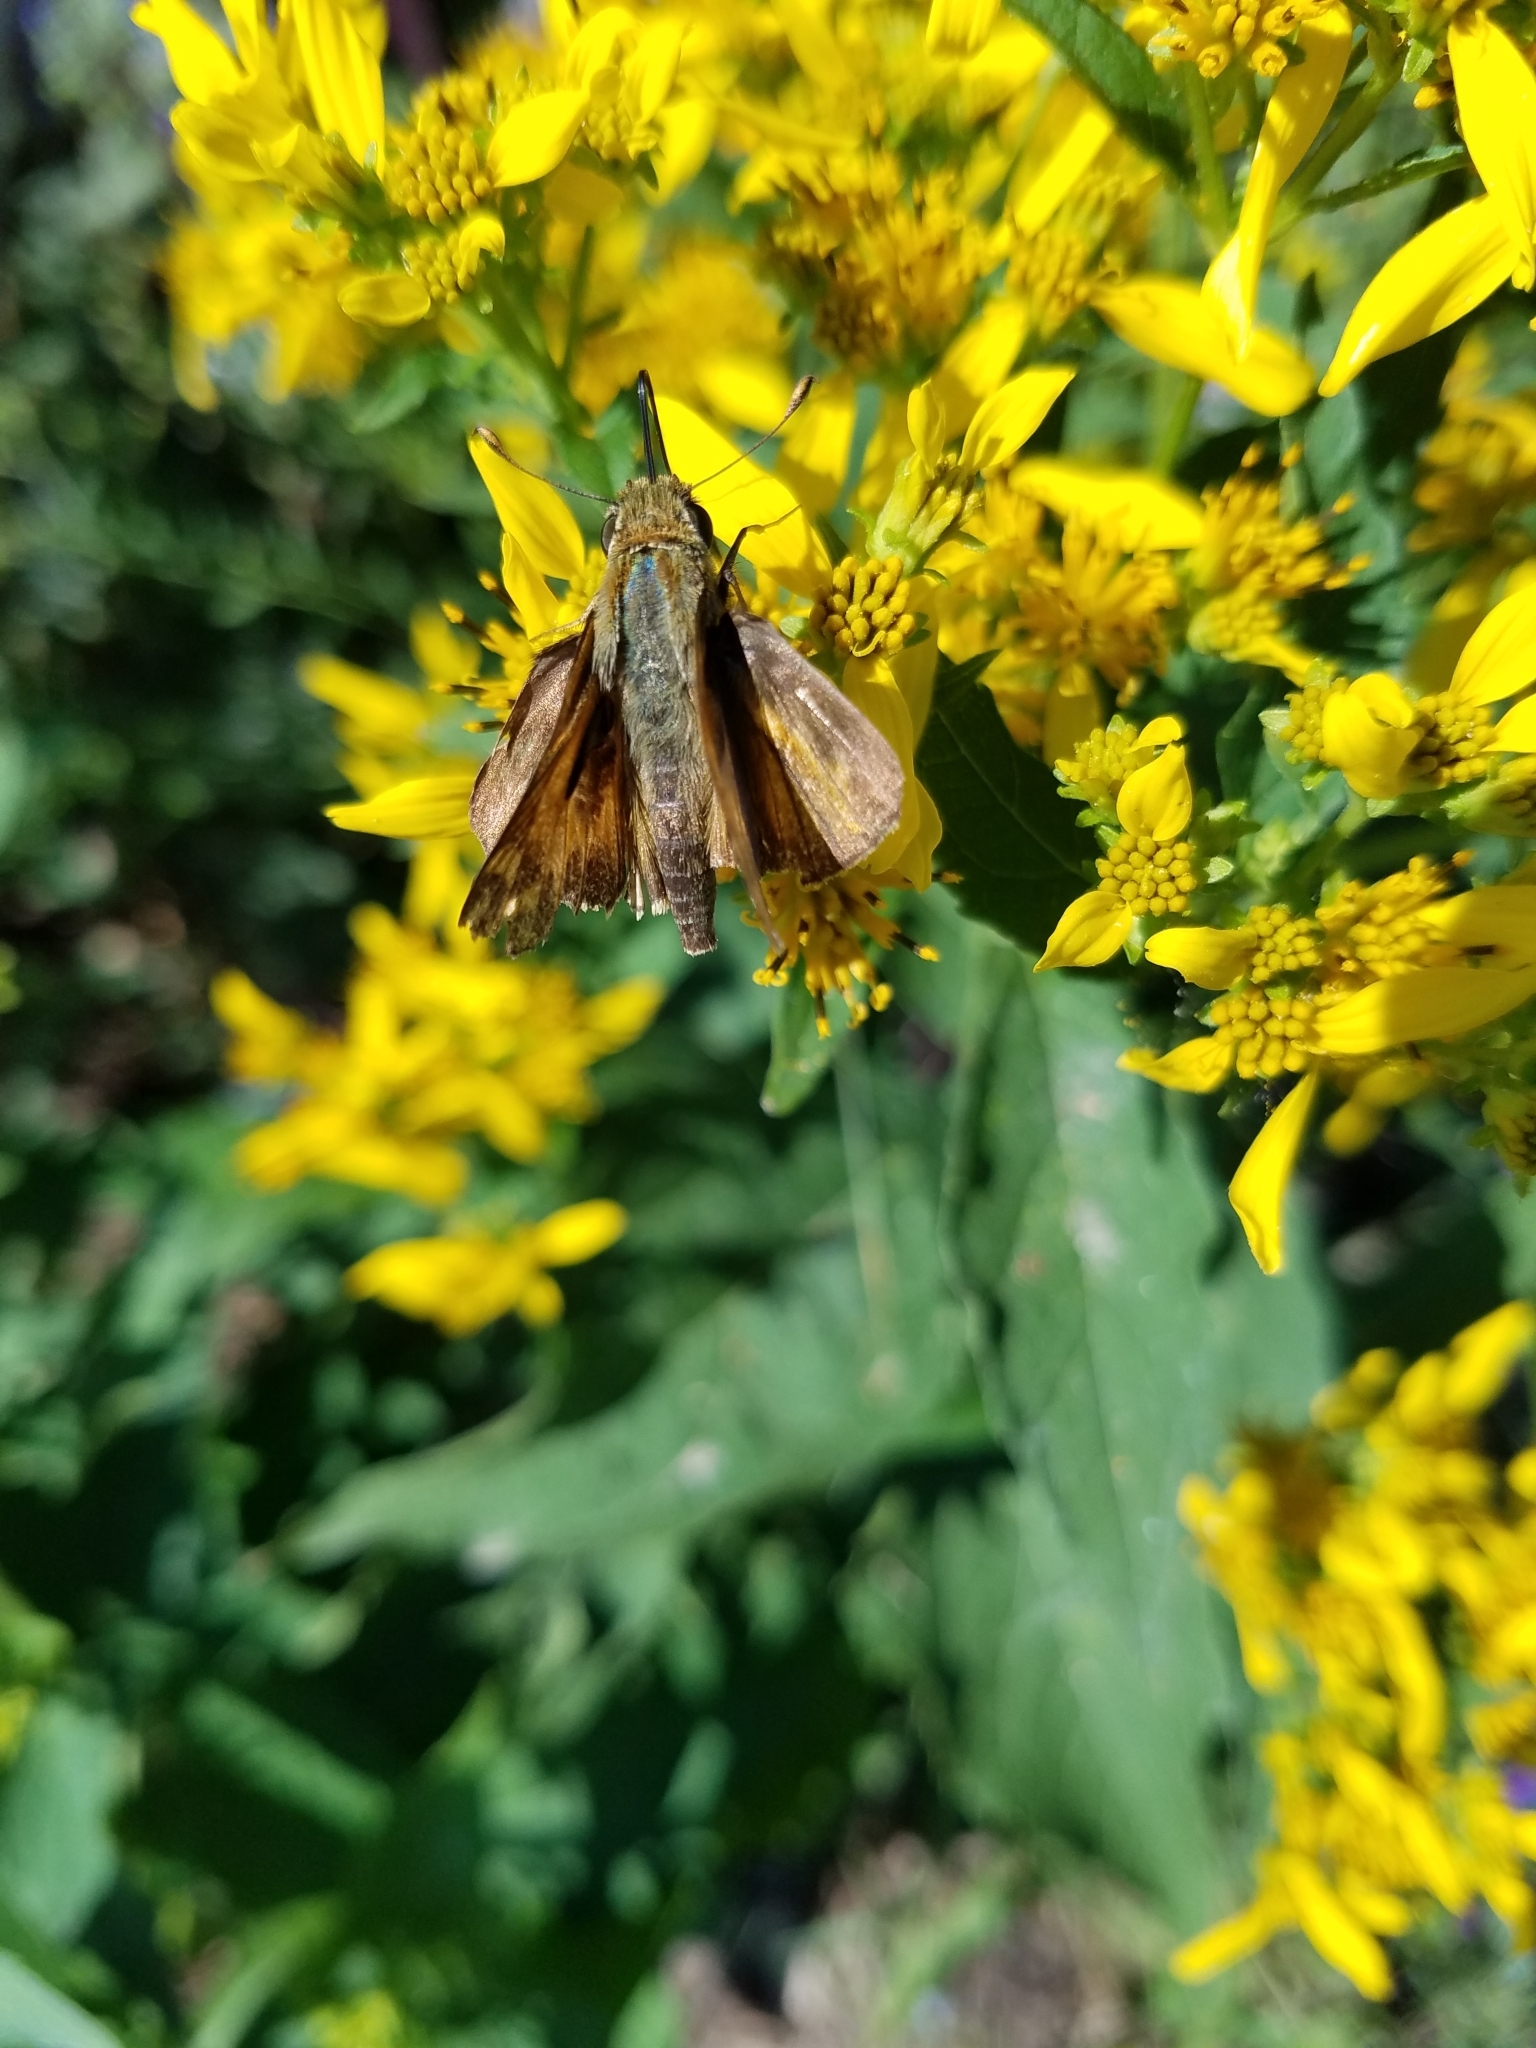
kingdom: Animalia
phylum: Arthropoda
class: Insecta
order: Lepidoptera
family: Hesperiidae
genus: Atalopedes
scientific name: Atalopedes
